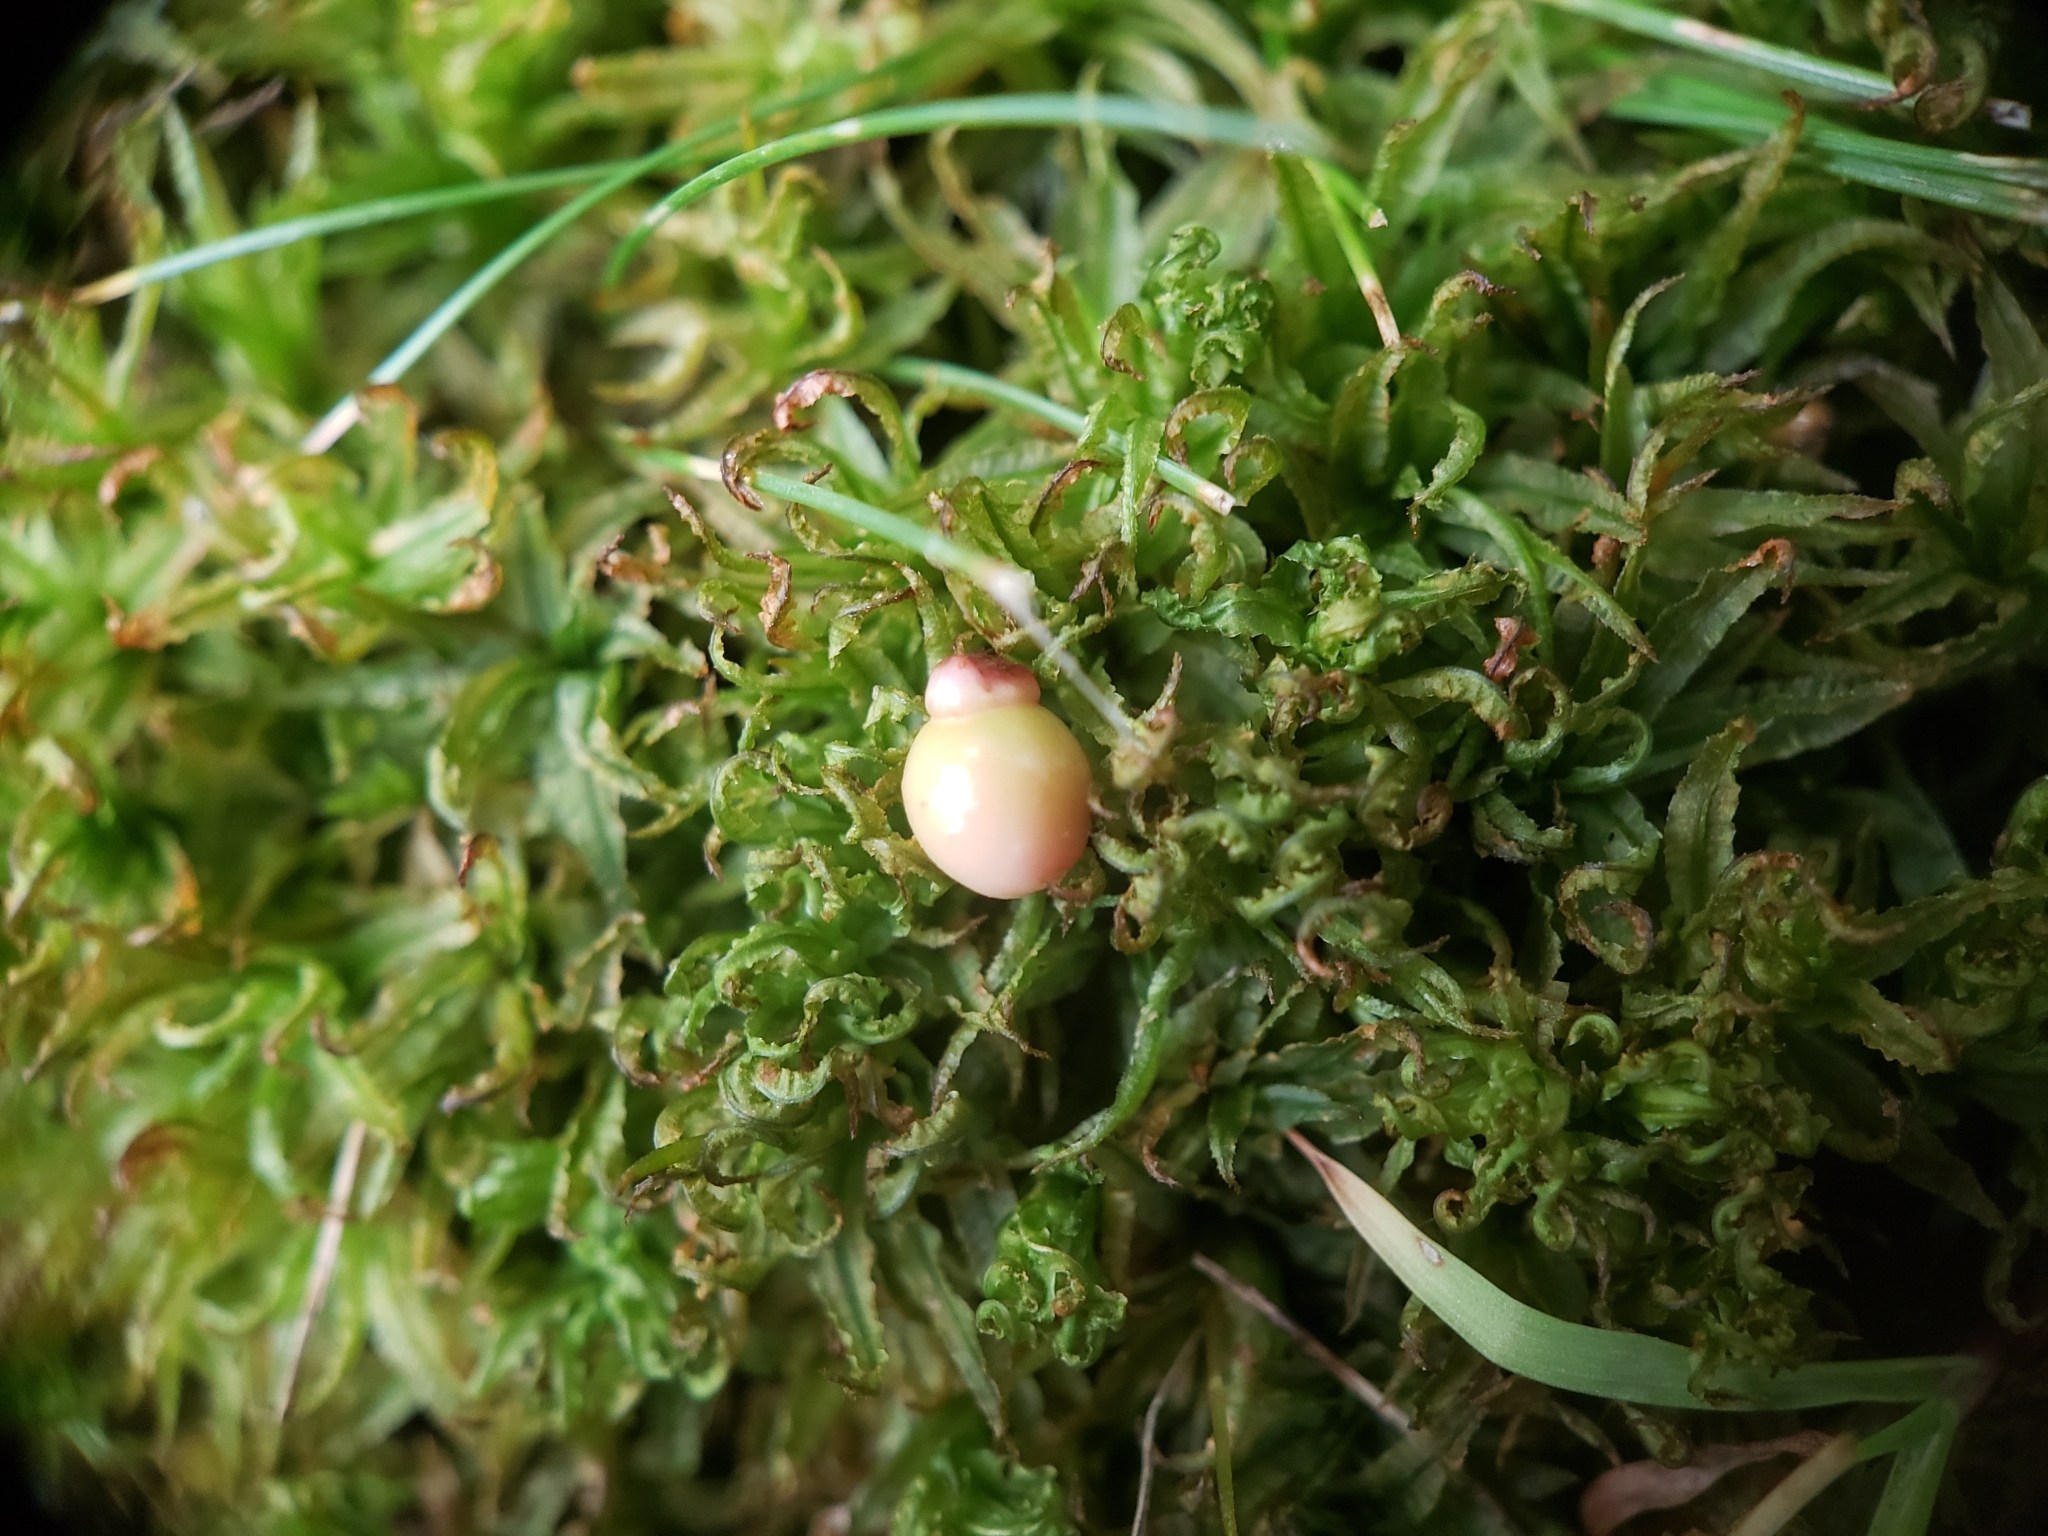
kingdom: Animalia
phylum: Arthropoda
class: Insecta
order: Hymenoptera
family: Cynipidae
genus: Kokkocynips
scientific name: Kokkocynips rileyi
